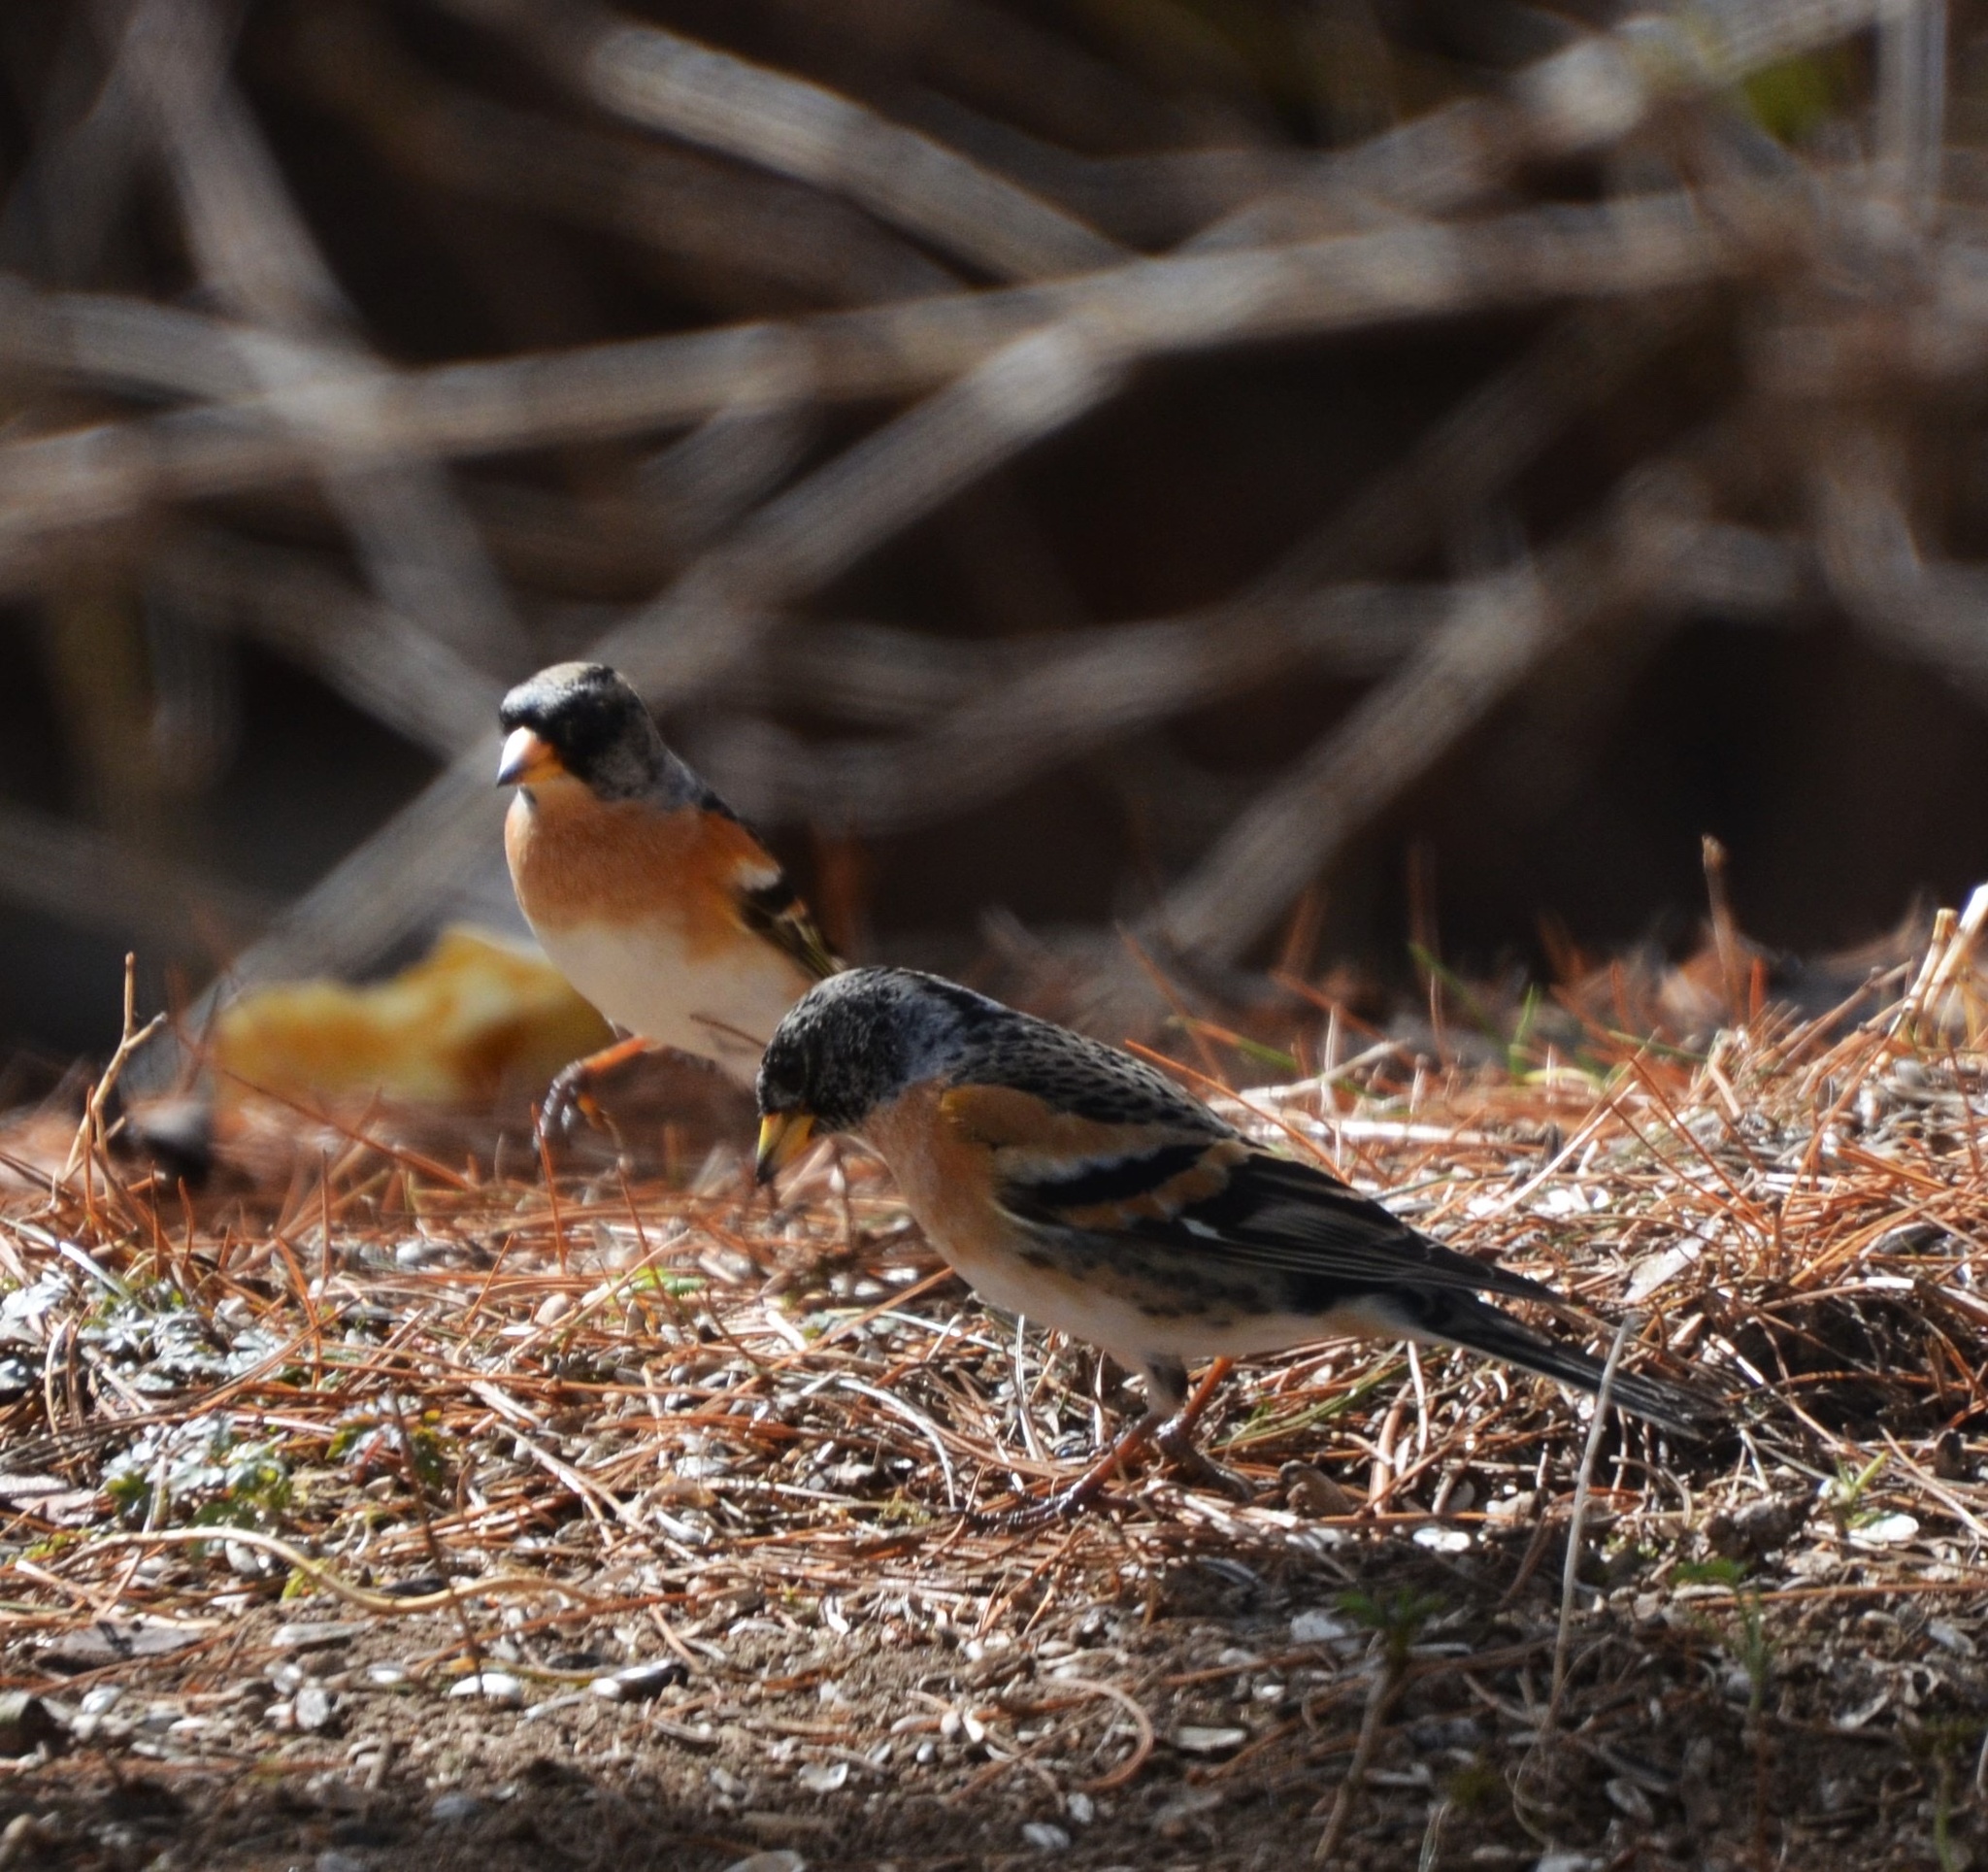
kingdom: Animalia
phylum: Chordata
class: Aves
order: Passeriformes
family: Fringillidae
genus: Fringilla
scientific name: Fringilla montifringilla
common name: Brambling
